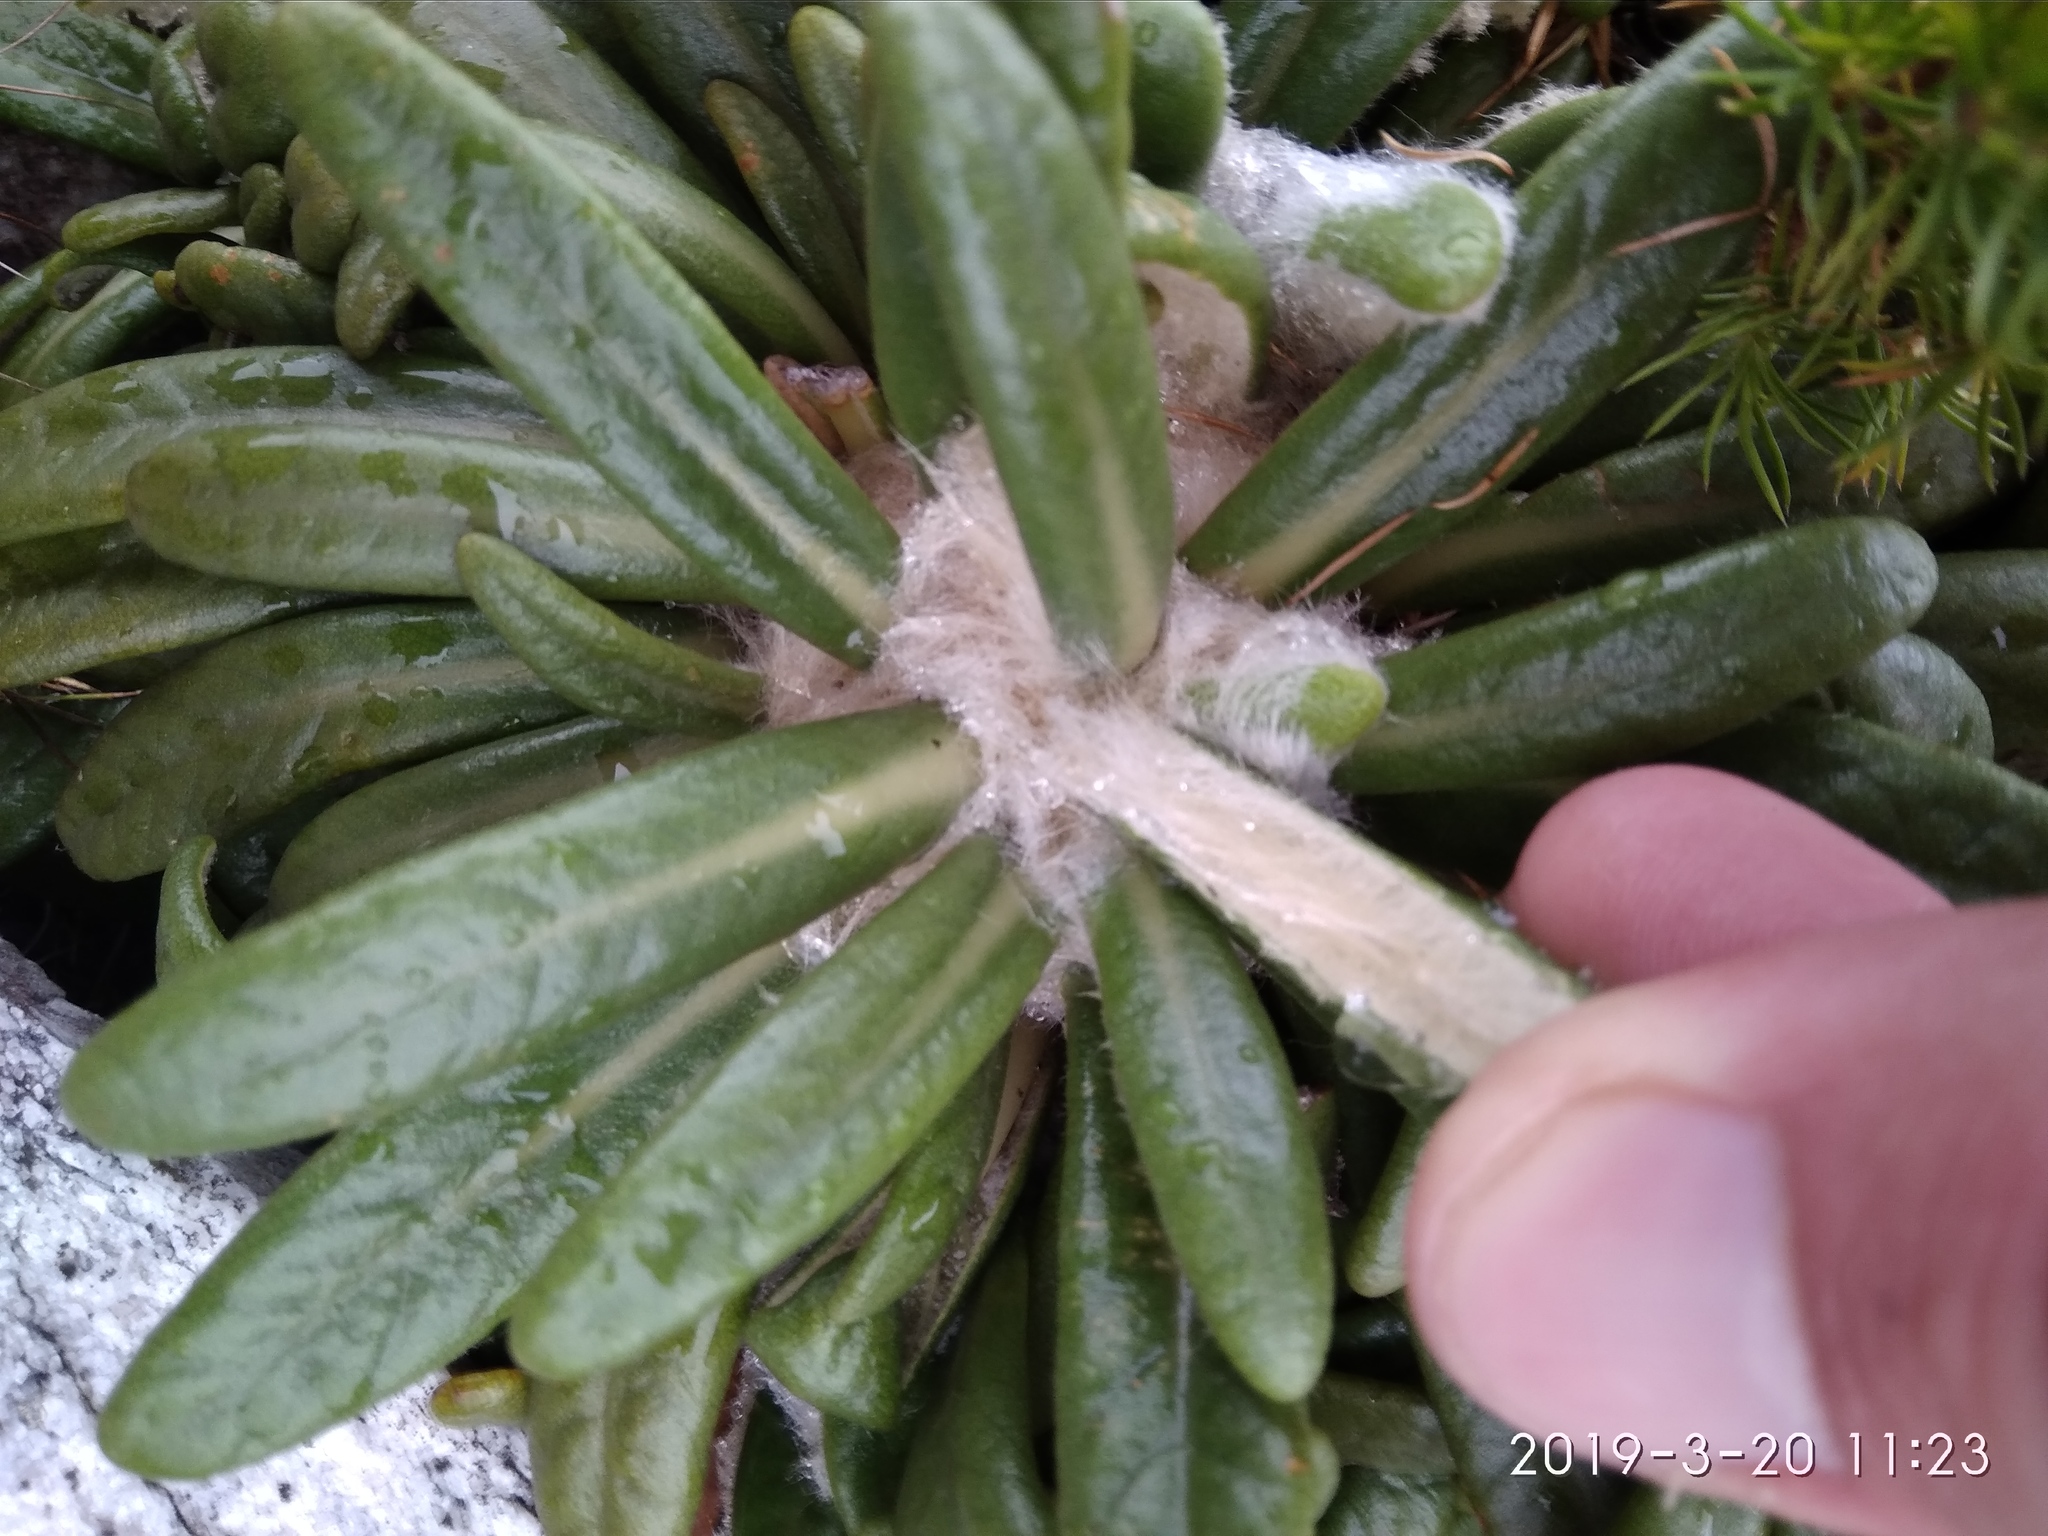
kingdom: Plantae
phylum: Tracheophyta
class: Magnoliopsida
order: Asterales
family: Asteraceae
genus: Oldenburgia
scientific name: Oldenburgia paradoxa
